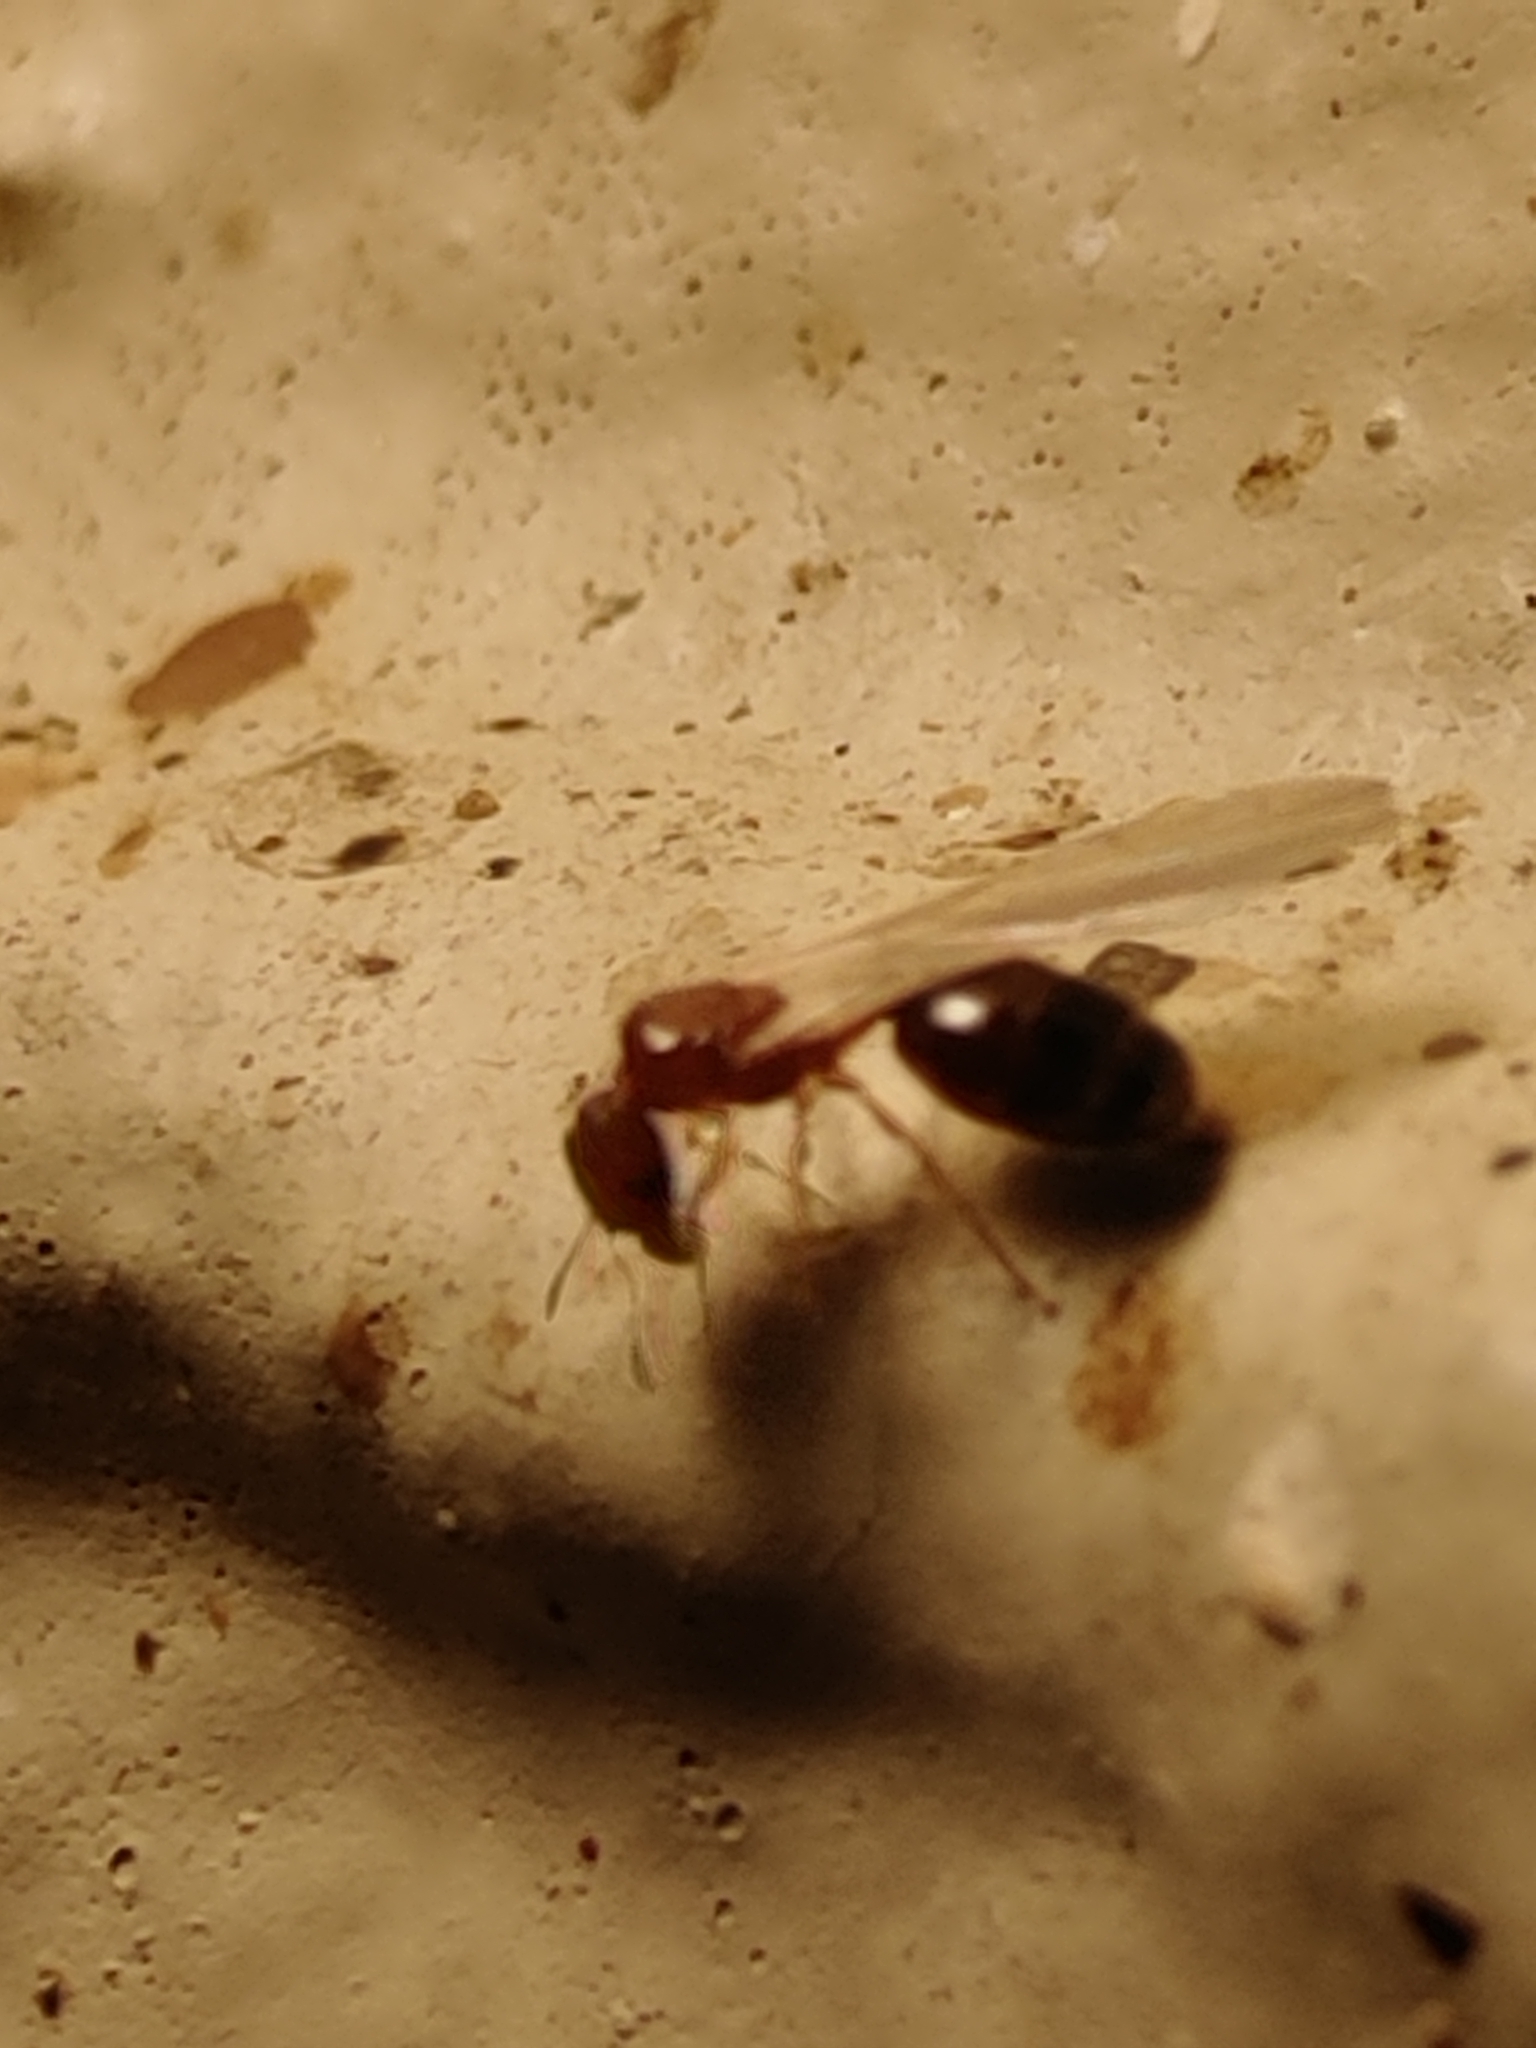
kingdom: Animalia
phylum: Arthropoda
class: Insecta
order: Hymenoptera
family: Formicidae
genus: Pheidole
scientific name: Pheidole parva
